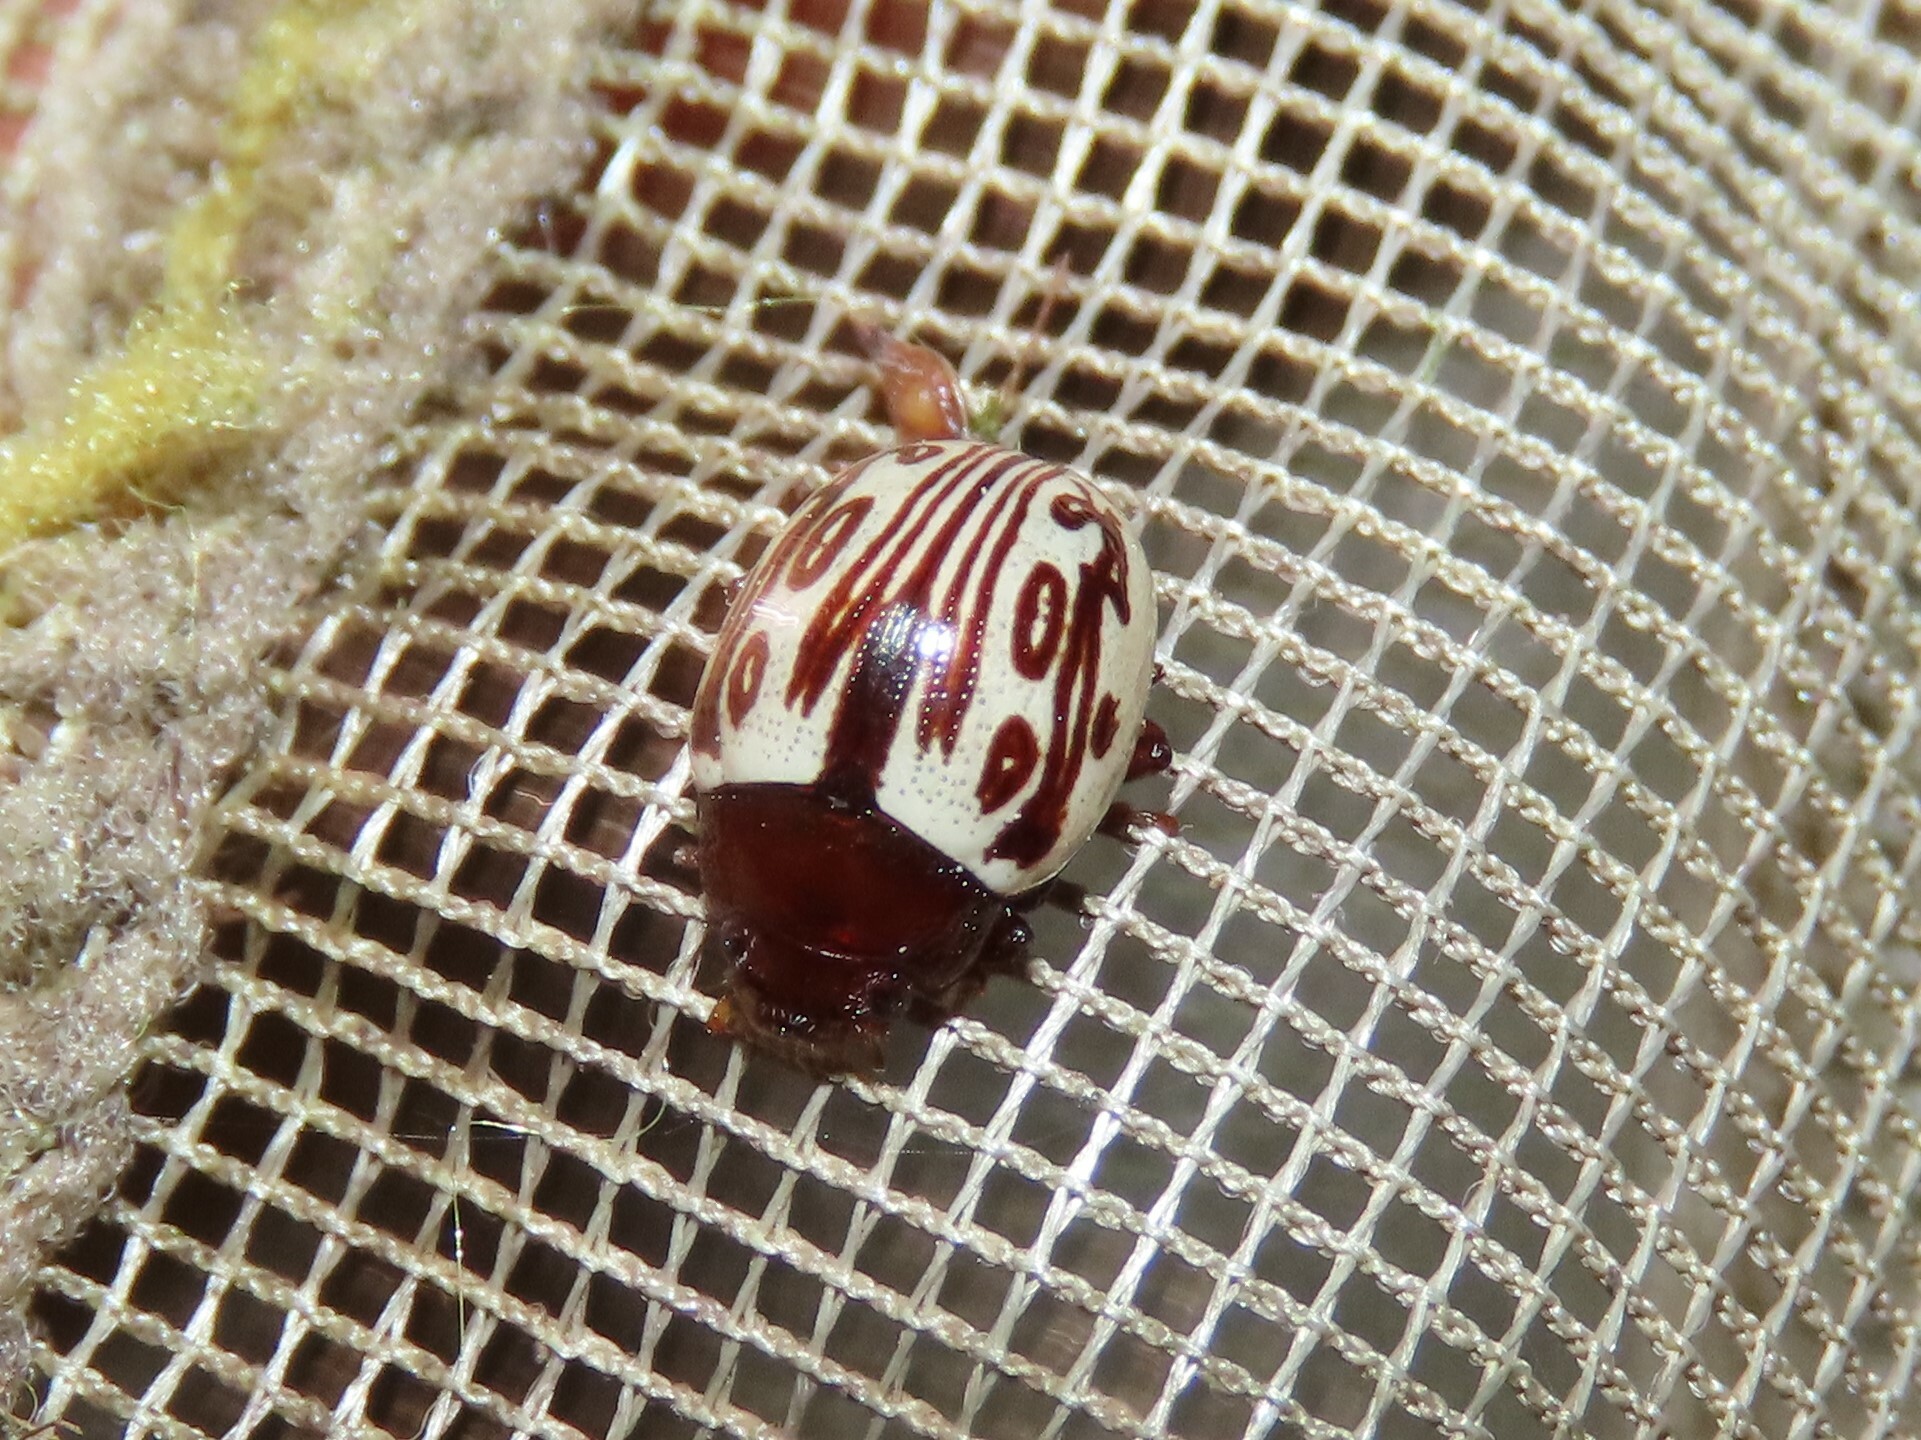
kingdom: Animalia
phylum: Arthropoda
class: Insecta
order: Coleoptera
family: Chrysomelidae
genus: Calligrapha
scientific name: Calligrapha
